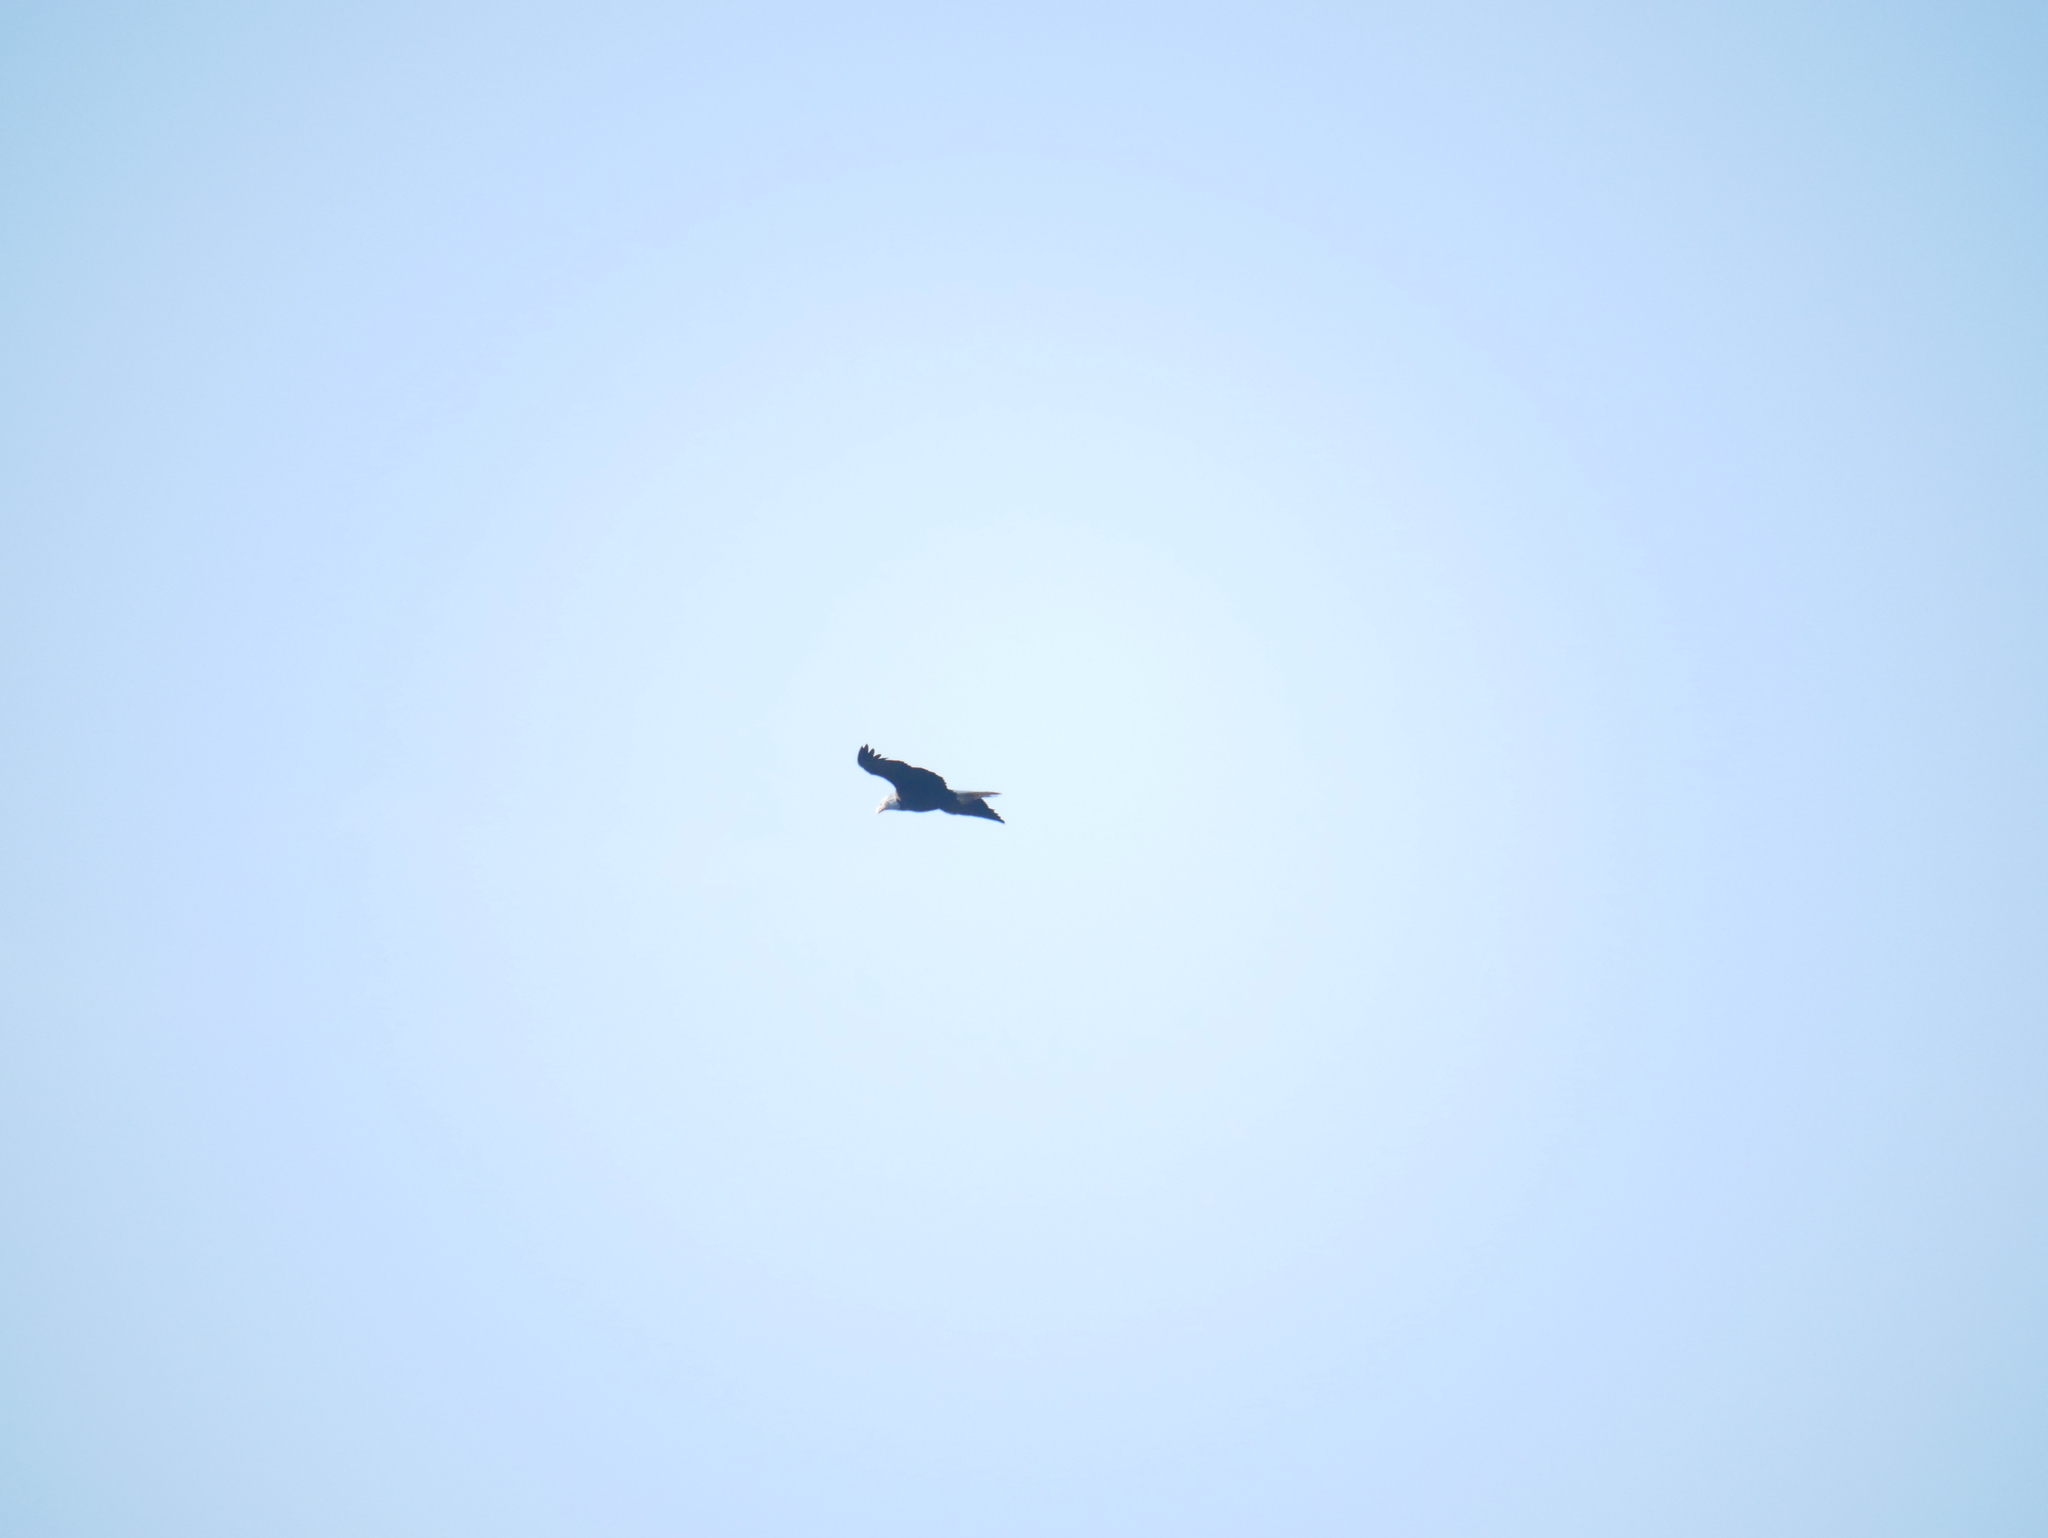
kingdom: Animalia
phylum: Chordata
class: Aves
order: Accipitriformes
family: Accipitridae
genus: Haliaeetus
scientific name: Haliaeetus leucocephalus
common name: Bald eagle
